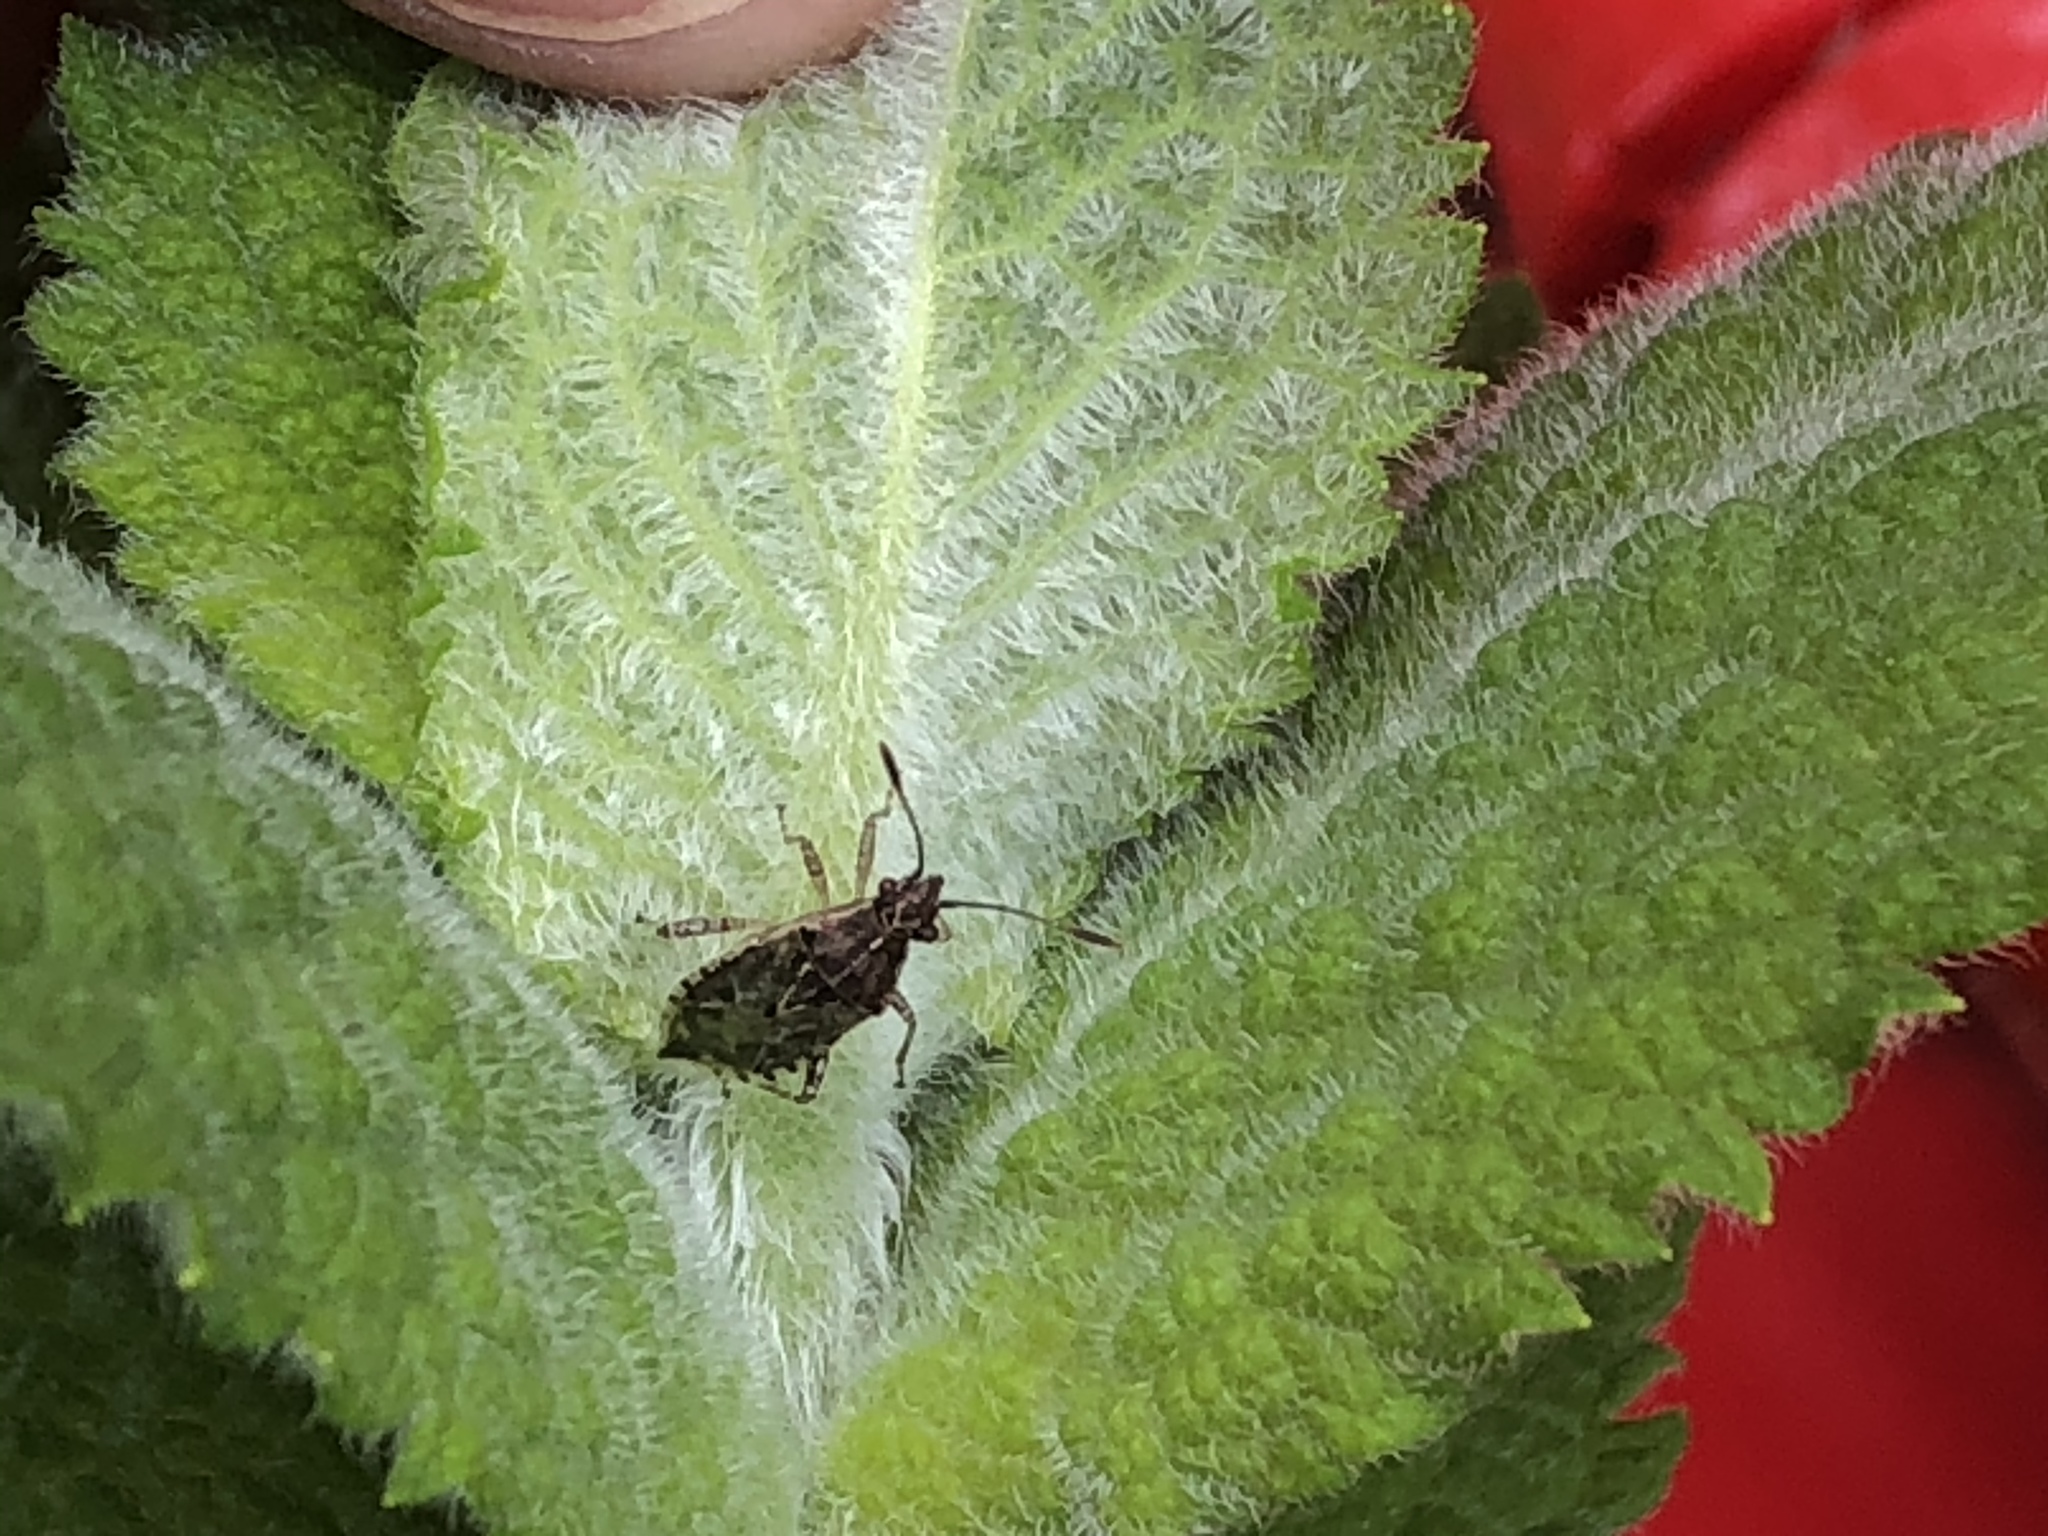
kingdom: Animalia
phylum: Arthropoda
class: Insecta
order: Hemiptera
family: Rhopalidae
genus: Niesthrea
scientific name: Niesthrea louisianica
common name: Scentless plant bug
